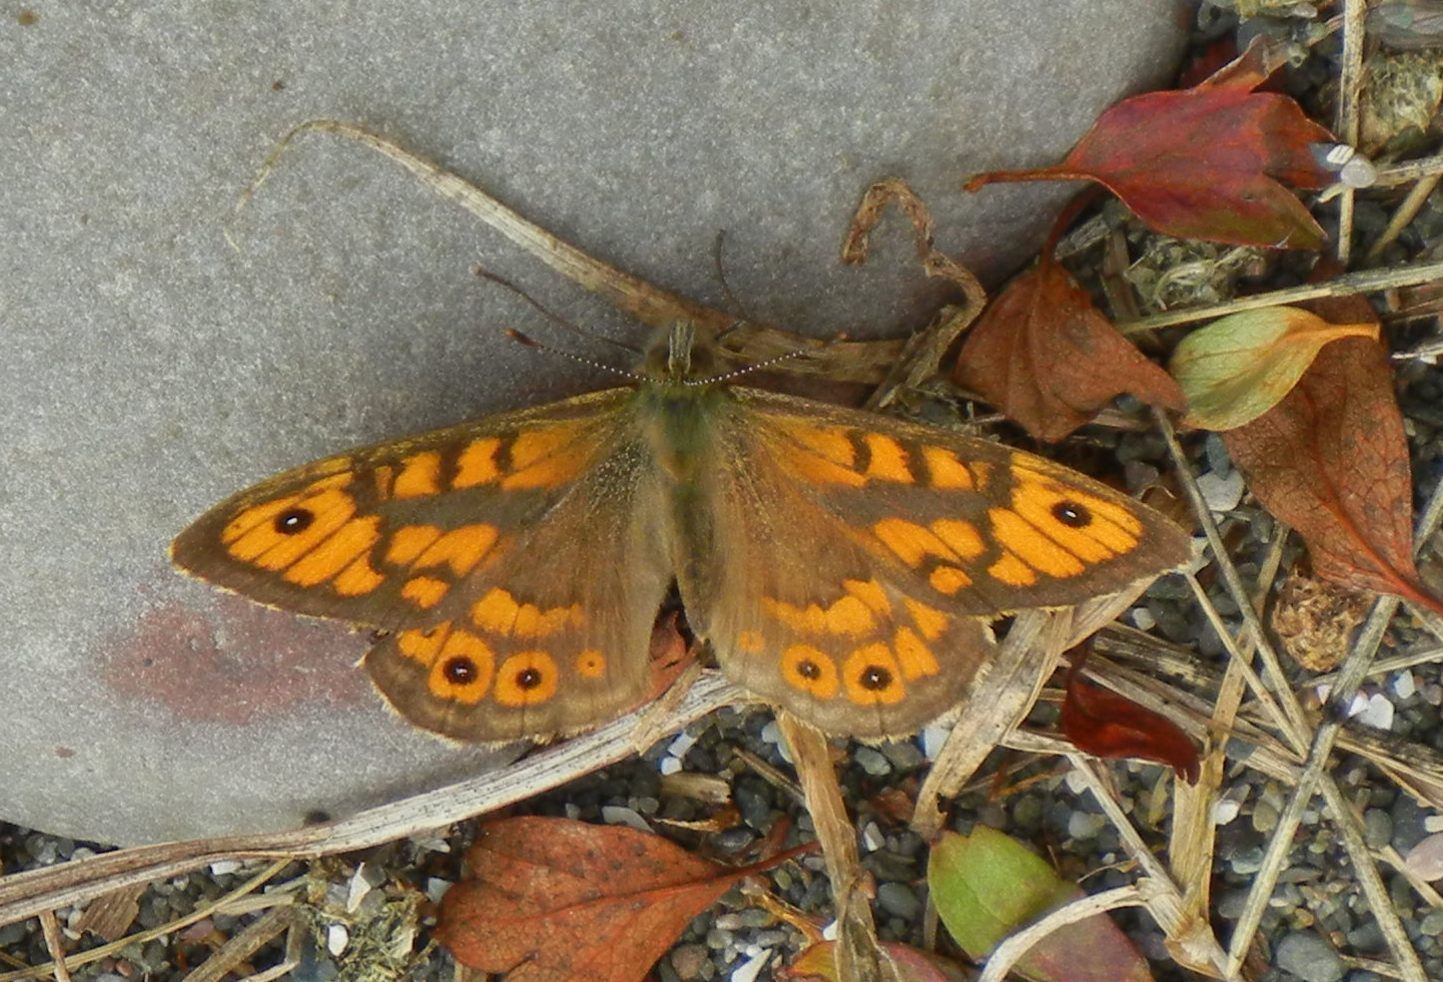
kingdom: Animalia
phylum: Arthropoda
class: Insecta
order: Lepidoptera
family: Nymphalidae
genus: Pararge
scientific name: Pararge Lasiommata megera
